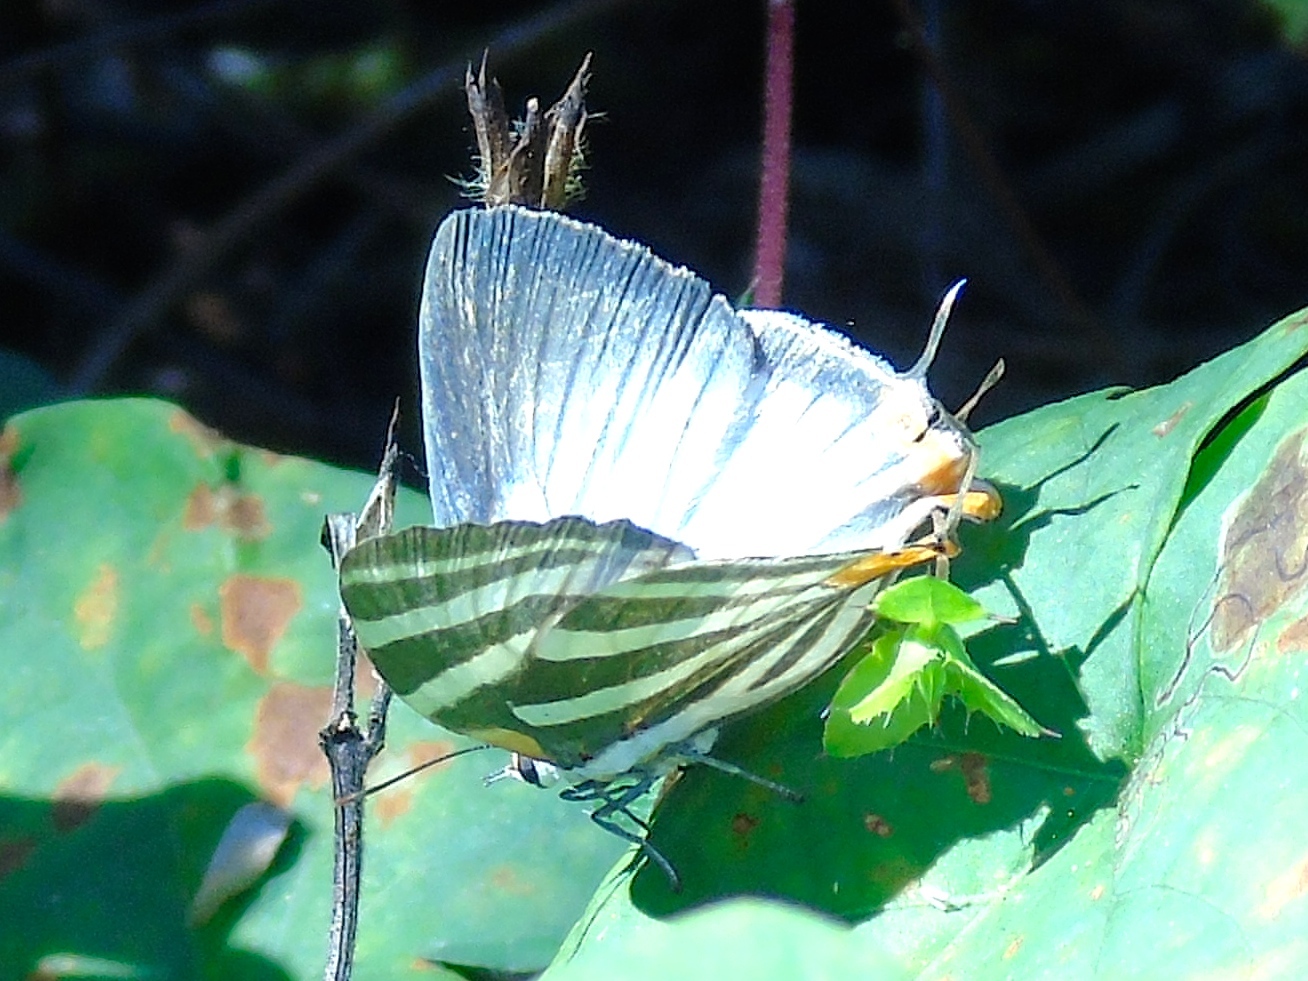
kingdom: Animalia
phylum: Arthropoda
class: Insecta
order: Lepidoptera
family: Lycaenidae
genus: Thecla
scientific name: Thecla bathildis
